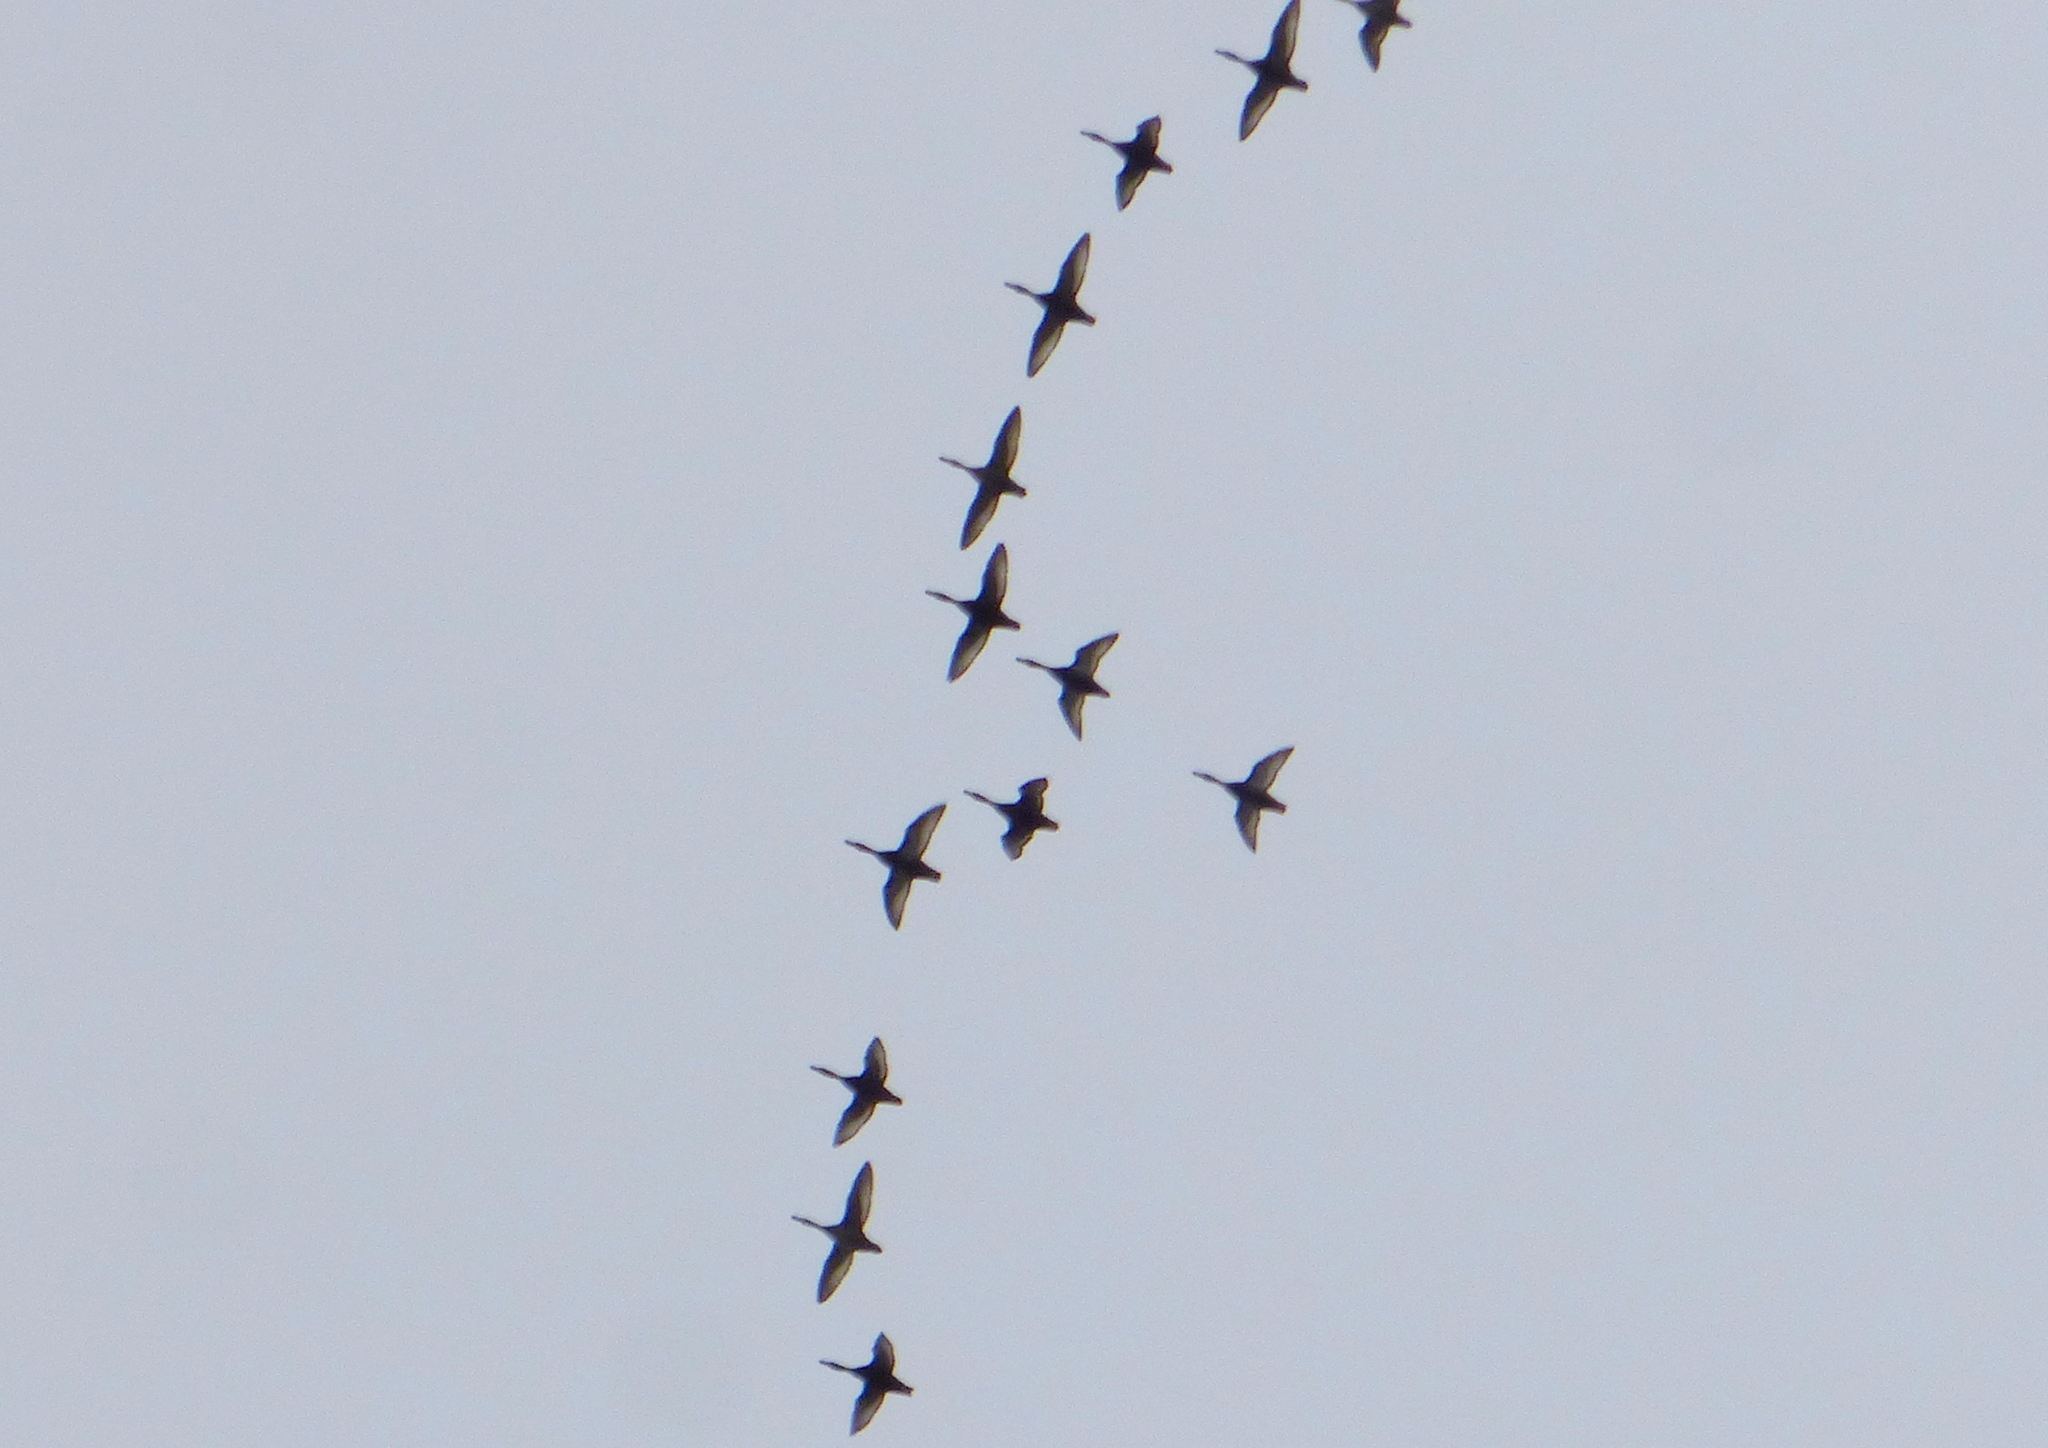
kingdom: Animalia
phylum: Chordata
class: Aves
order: Anseriformes
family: Anatidae
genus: Netta
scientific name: Netta peposaca
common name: Rosy-billed pochard
